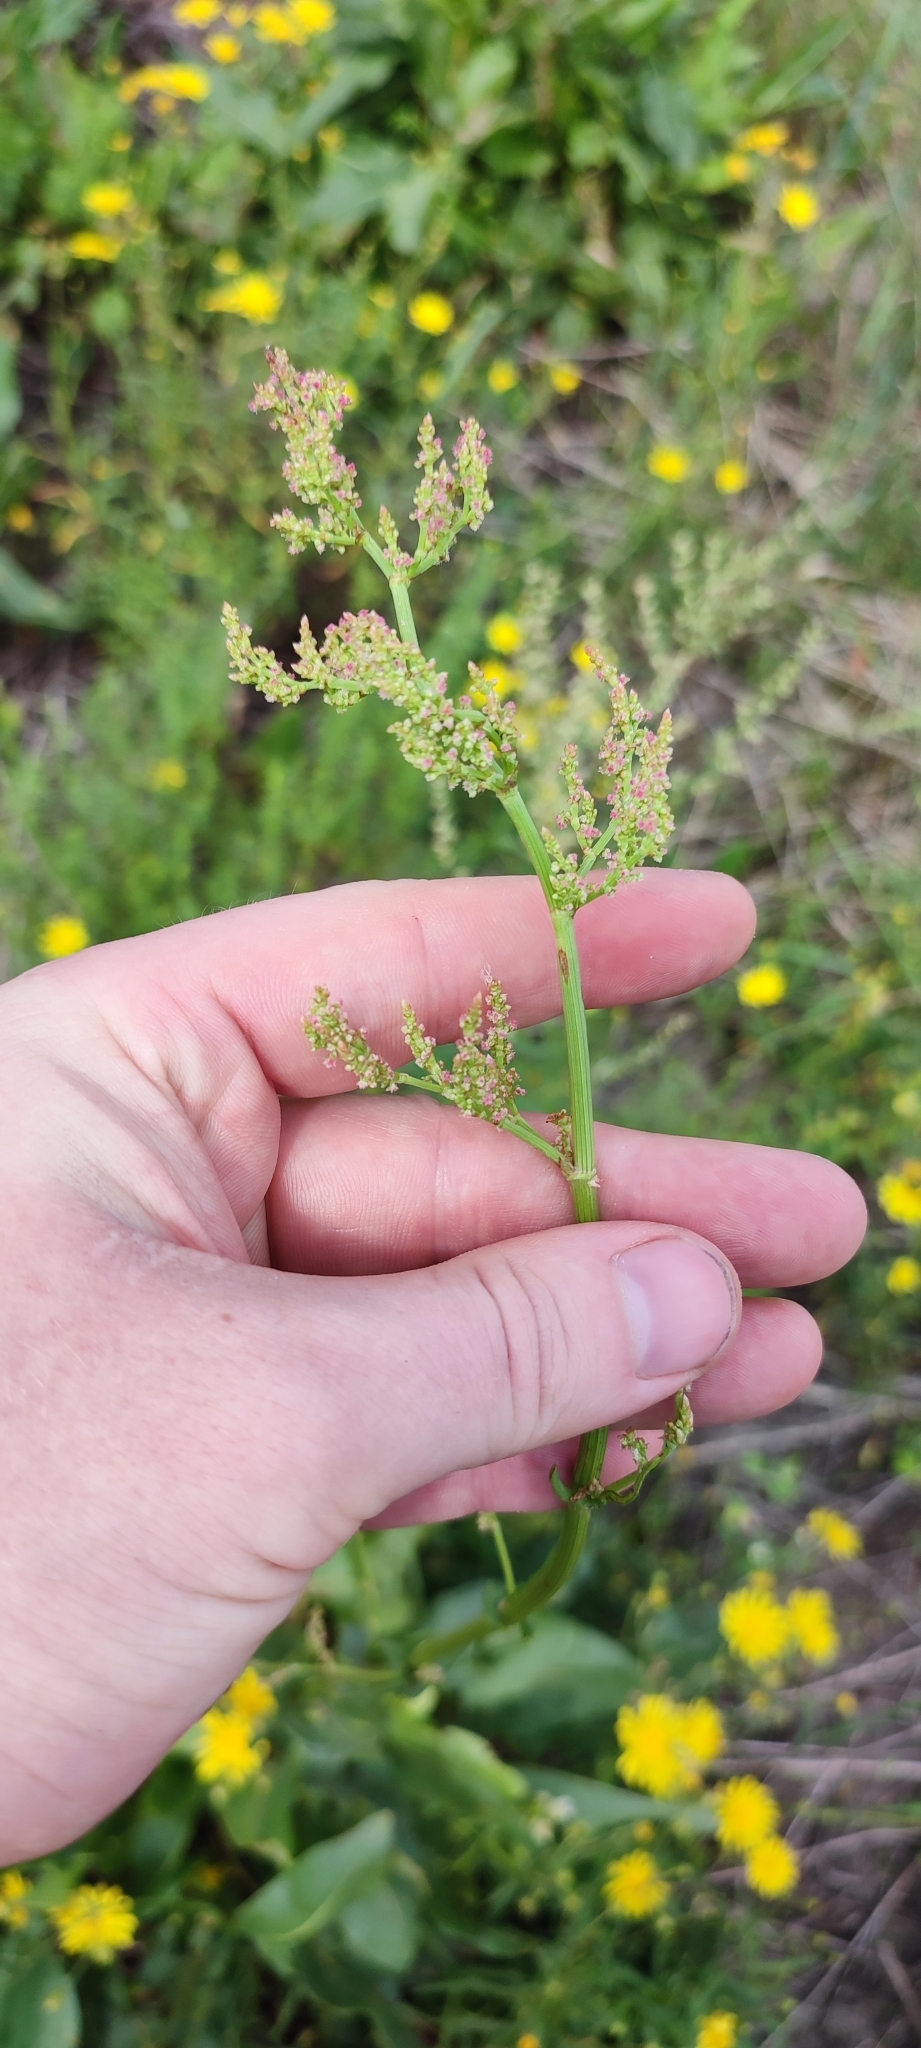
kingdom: Plantae
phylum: Tracheophyta
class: Magnoliopsida
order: Caryophyllales
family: Polygonaceae
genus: Rumex
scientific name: Rumex thyrsiflorus
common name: Garden sorrel
